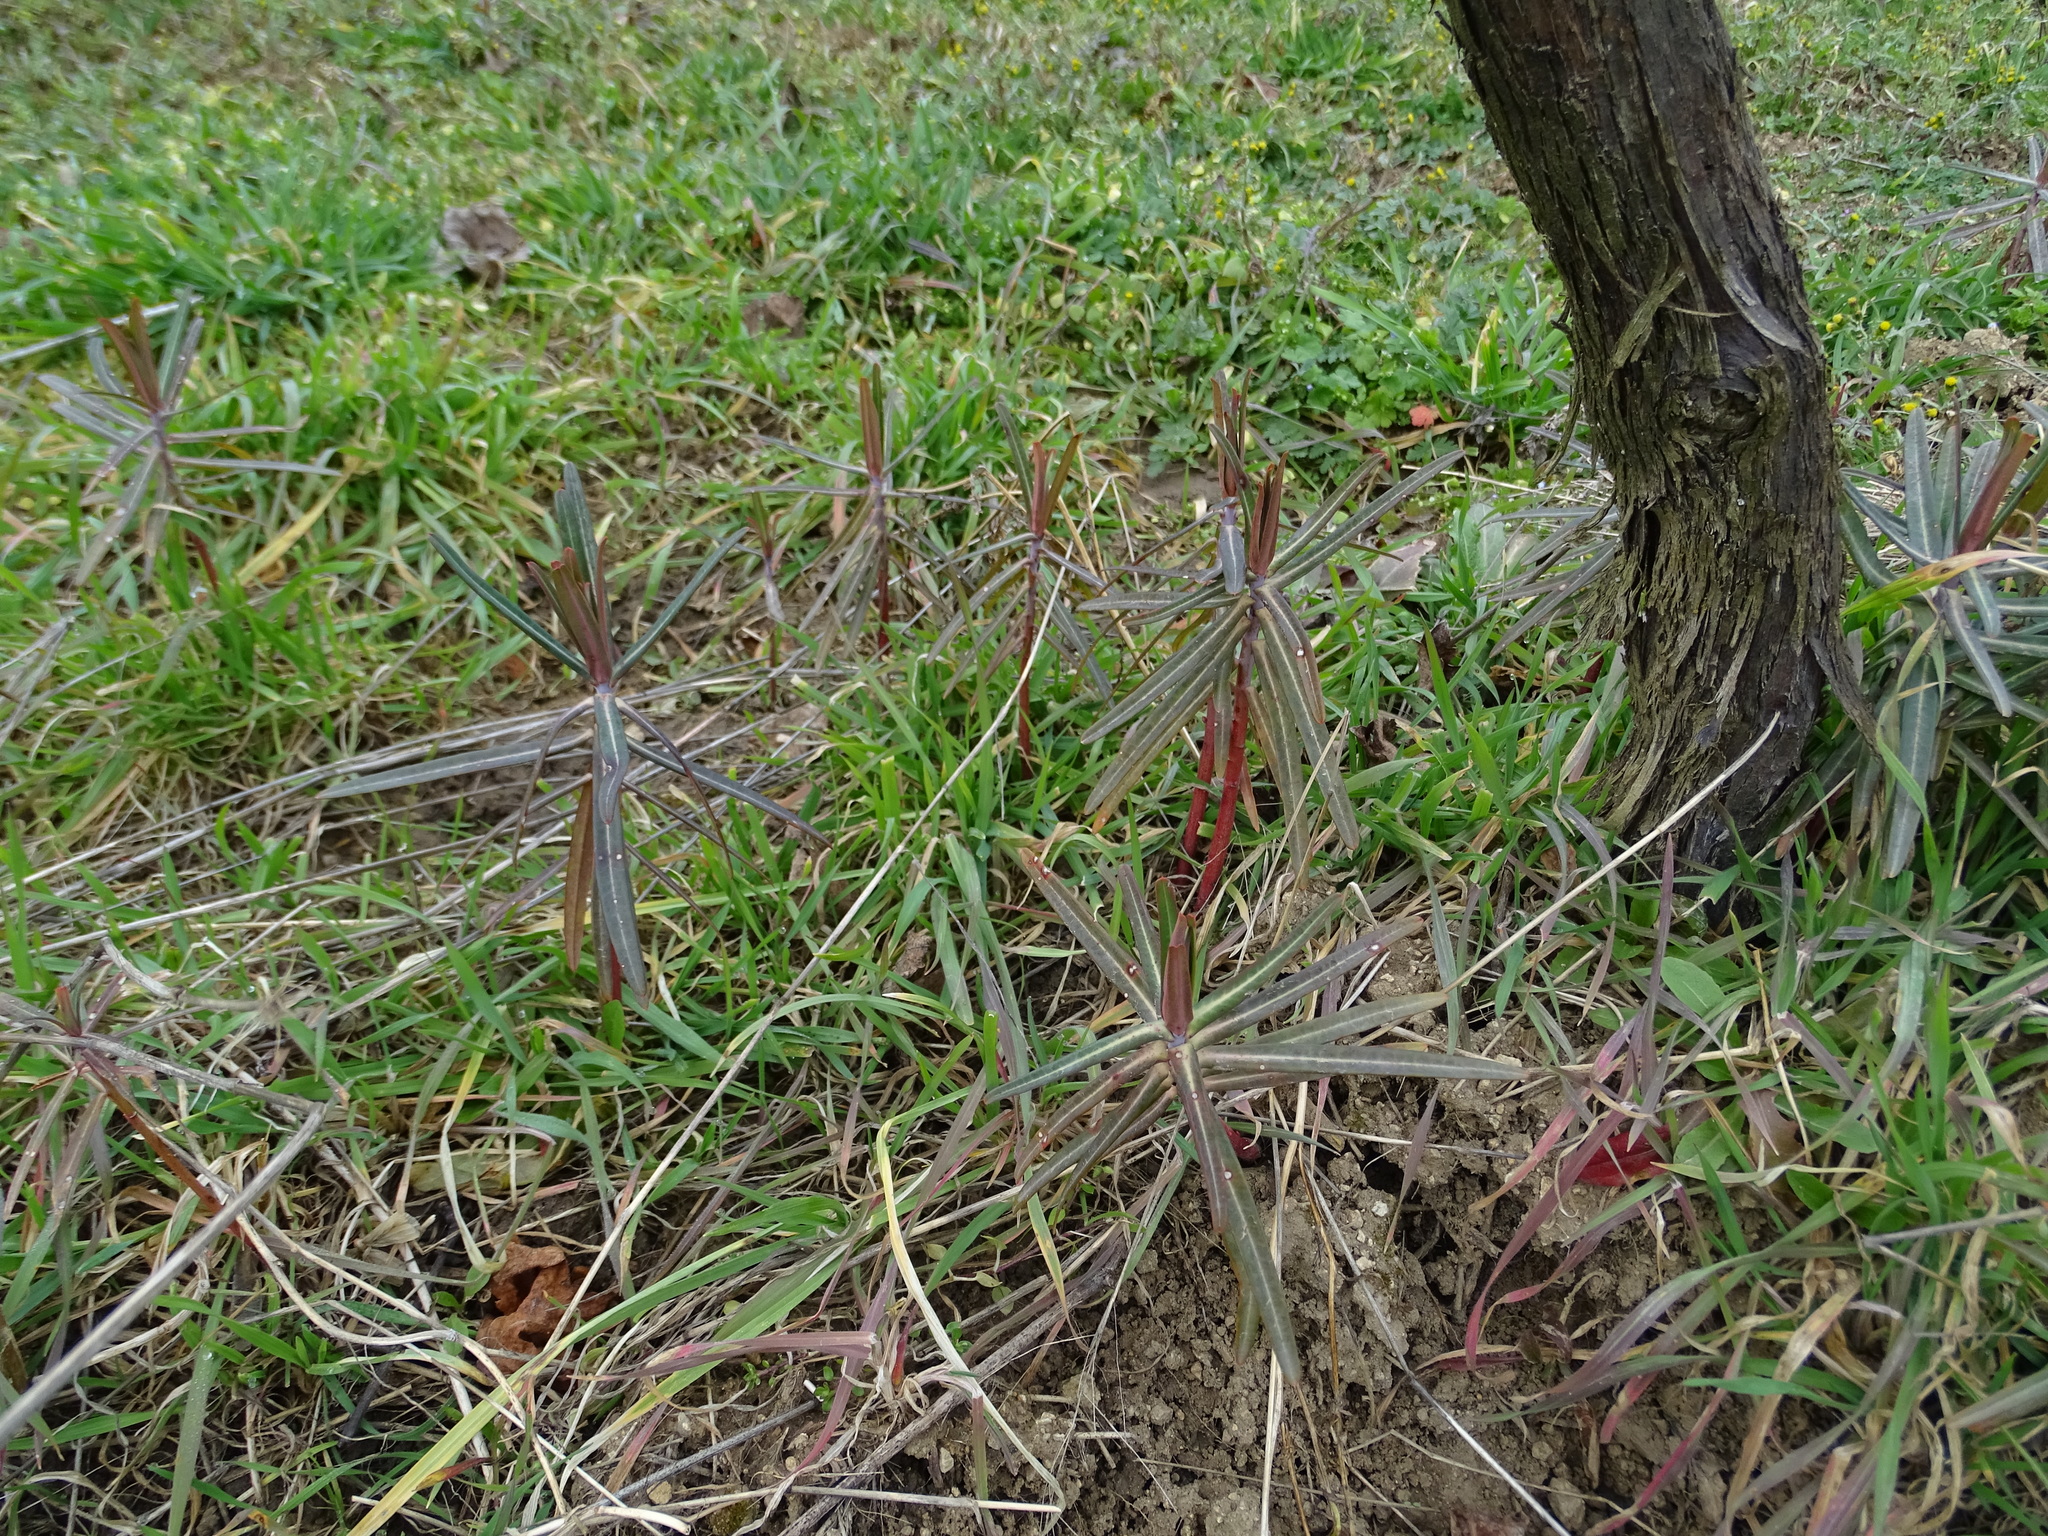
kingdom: Plantae
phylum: Tracheophyta
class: Magnoliopsida
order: Malpighiales
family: Euphorbiaceae
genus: Euphorbia
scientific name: Euphorbia lathyris
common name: Caper spurge
